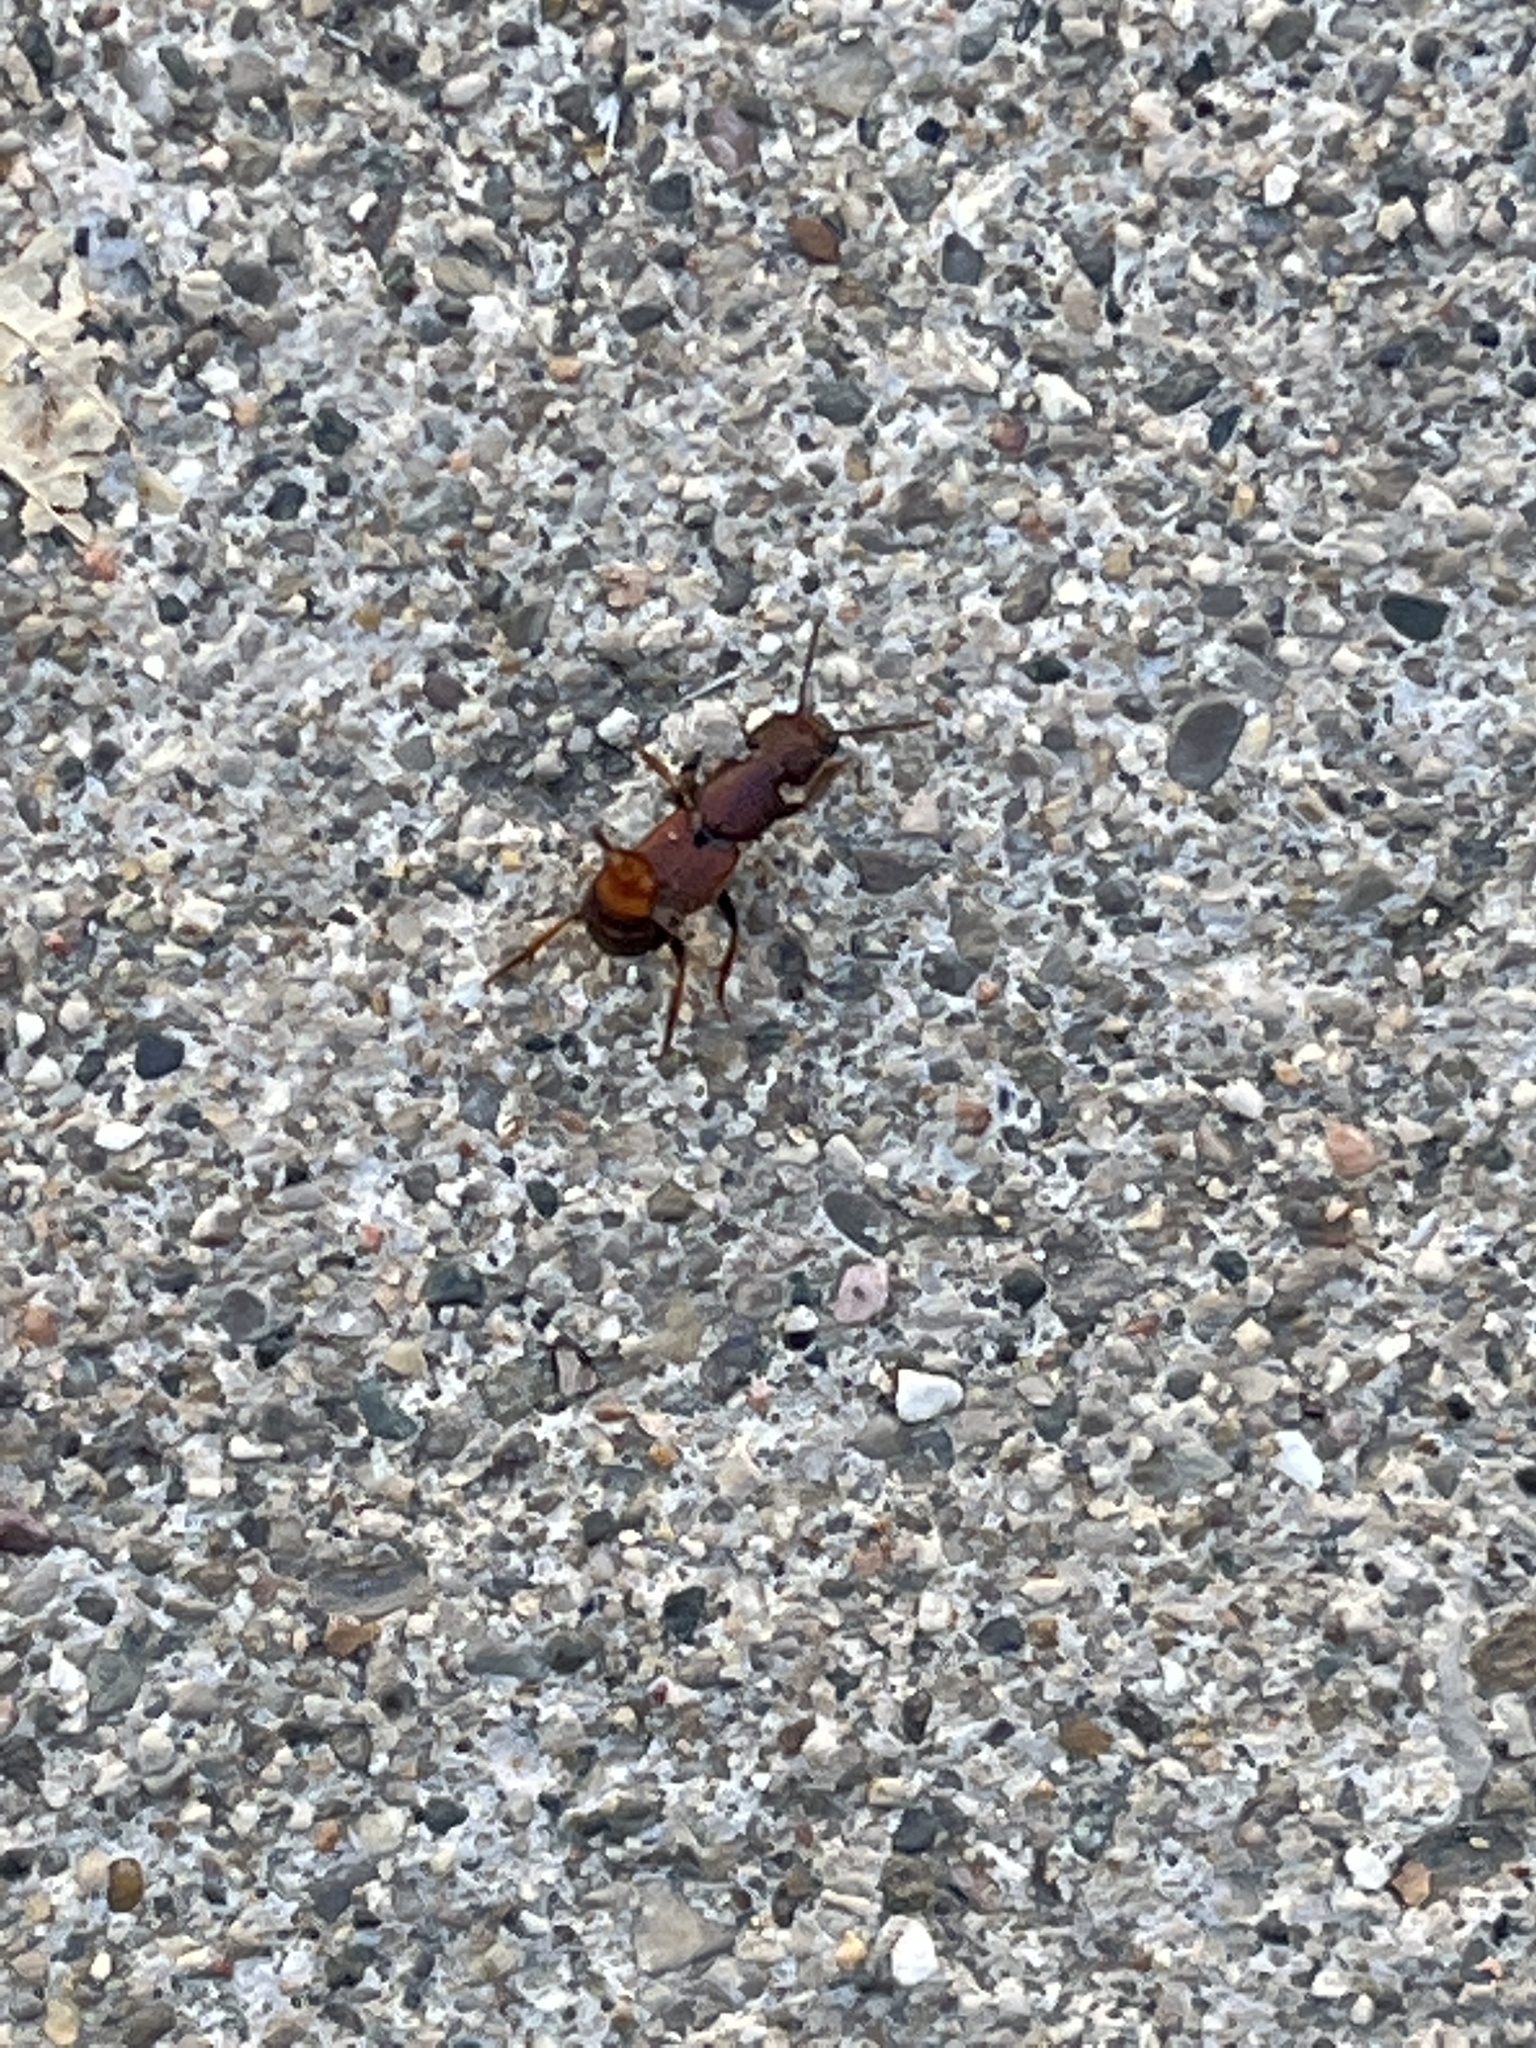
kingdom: Animalia
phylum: Arthropoda
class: Insecta
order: Coleoptera
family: Staphylinidae
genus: Platydracus
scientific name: Platydracus
